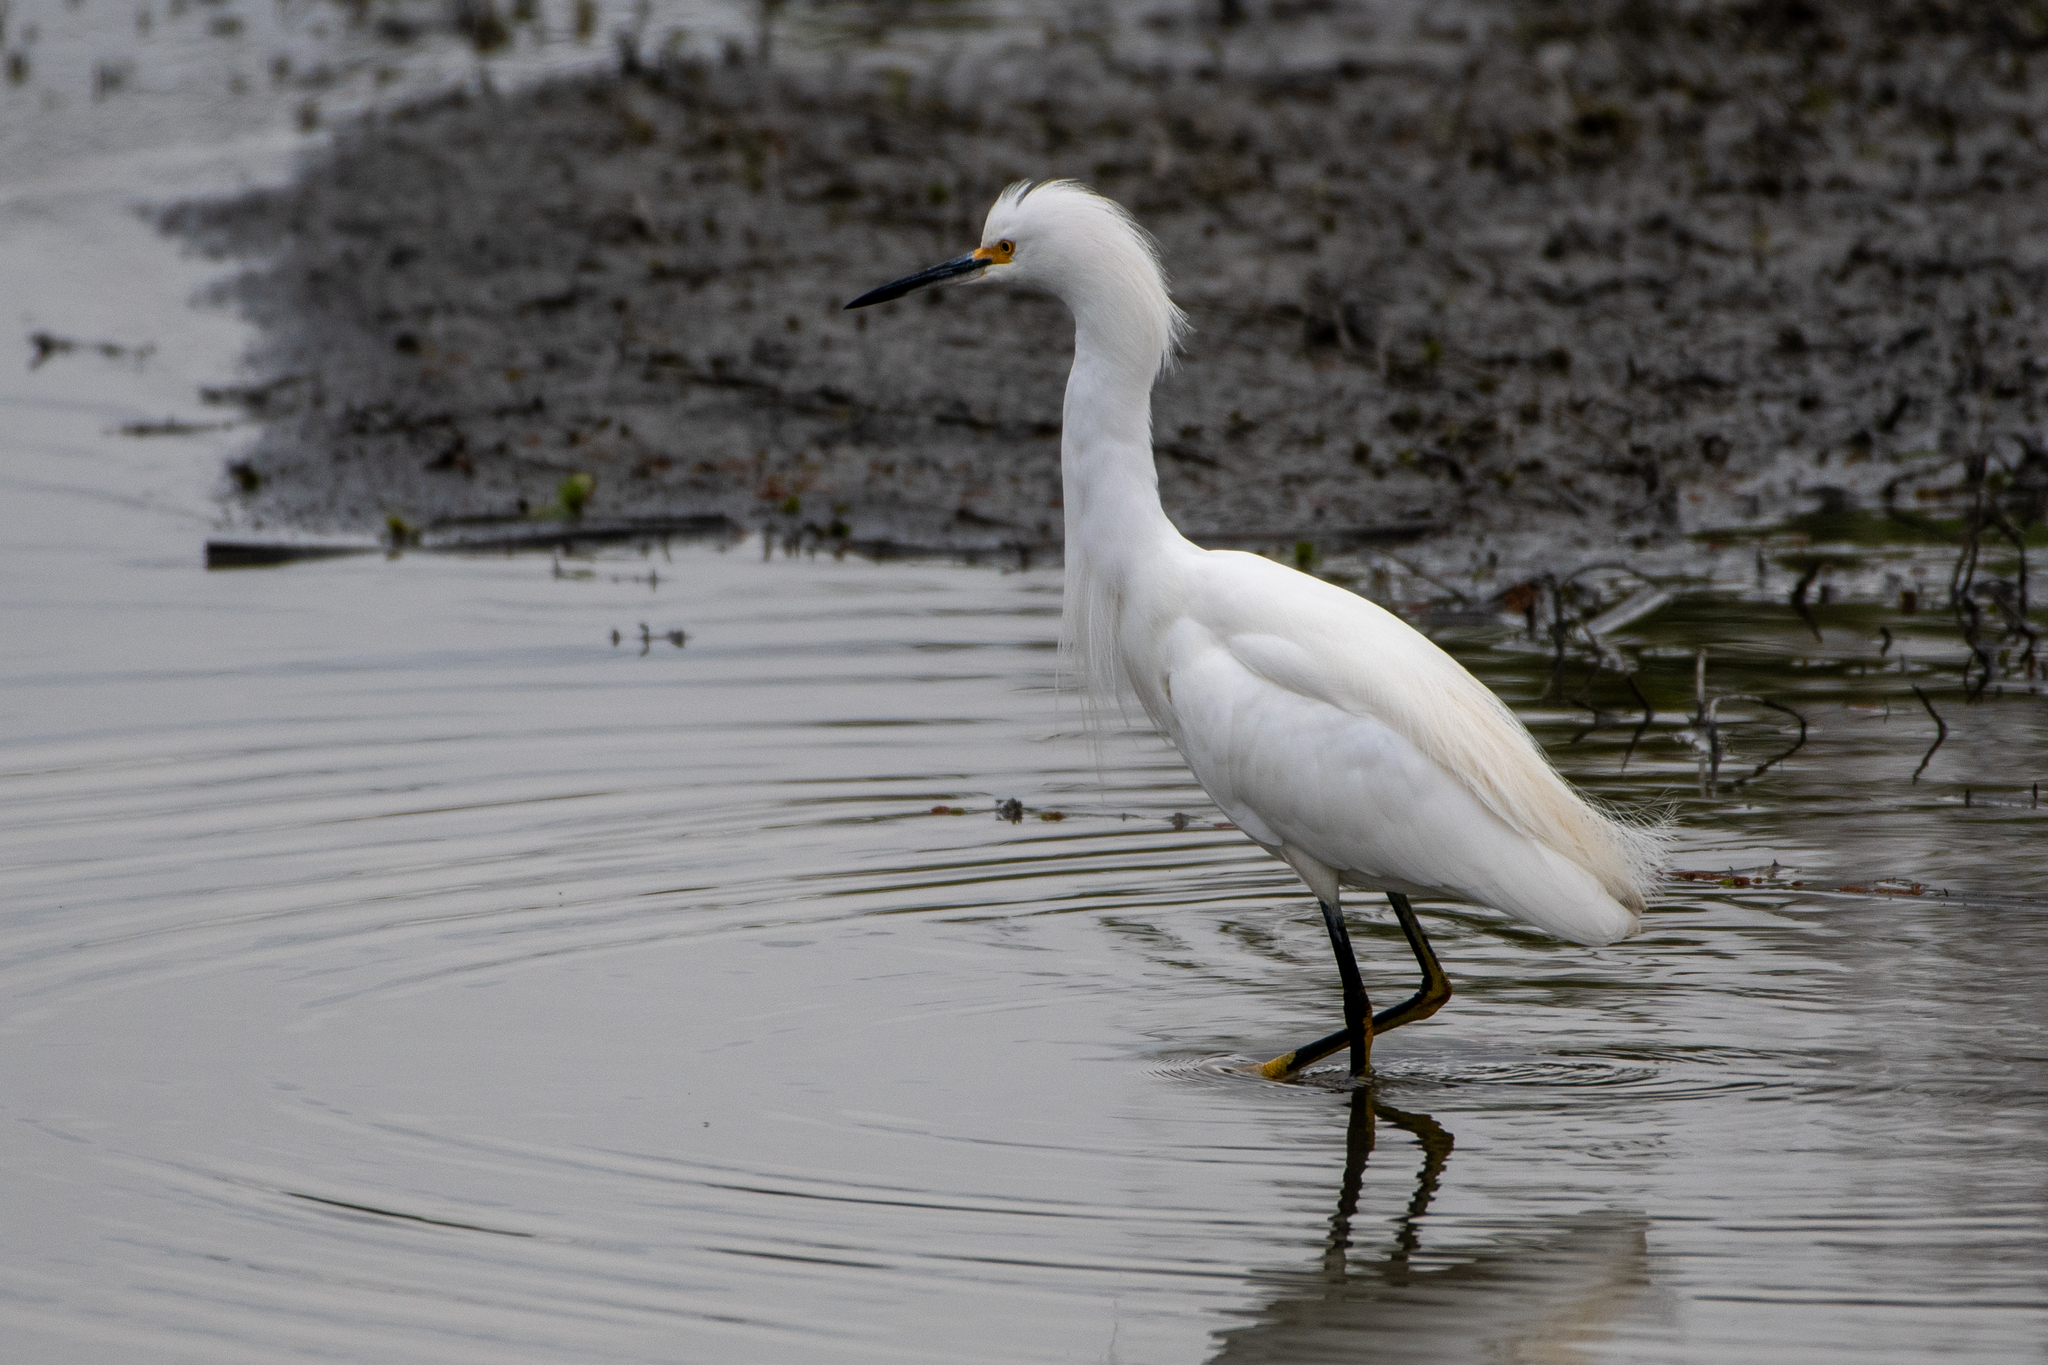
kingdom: Animalia
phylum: Chordata
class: Aves
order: Pelecaniformes
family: Ardeidae
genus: Egretta
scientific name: Egretta thula
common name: Snowy egret
